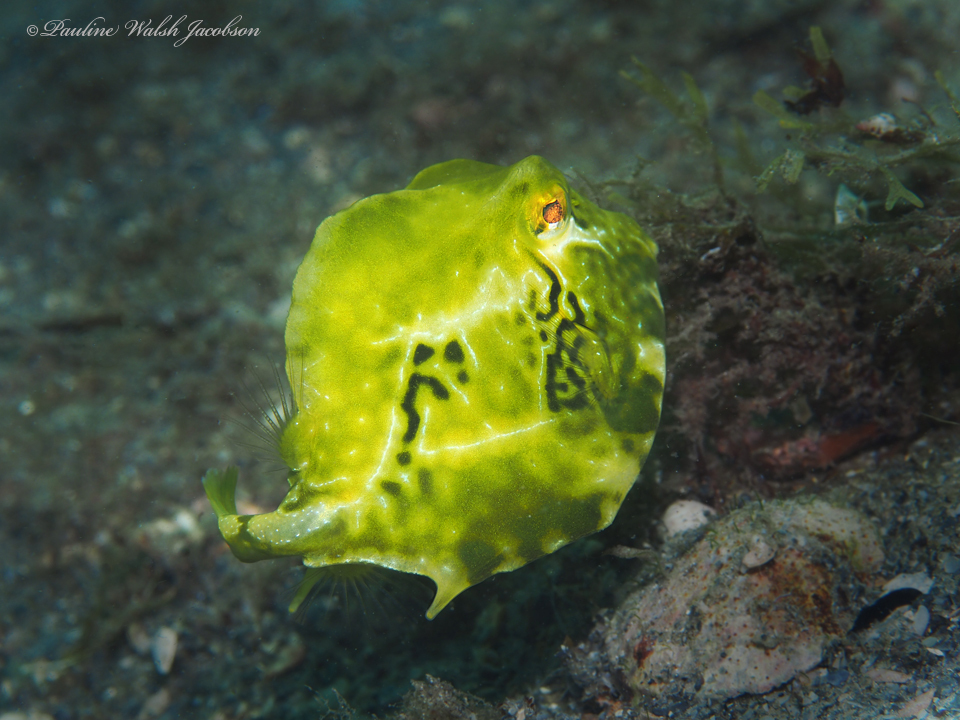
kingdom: Animalia
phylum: Chordata
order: Tetraodontiformes
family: Ostraciidae
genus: Lactophrys
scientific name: Lactophrys trigonus
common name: Buffalo trunkfish
